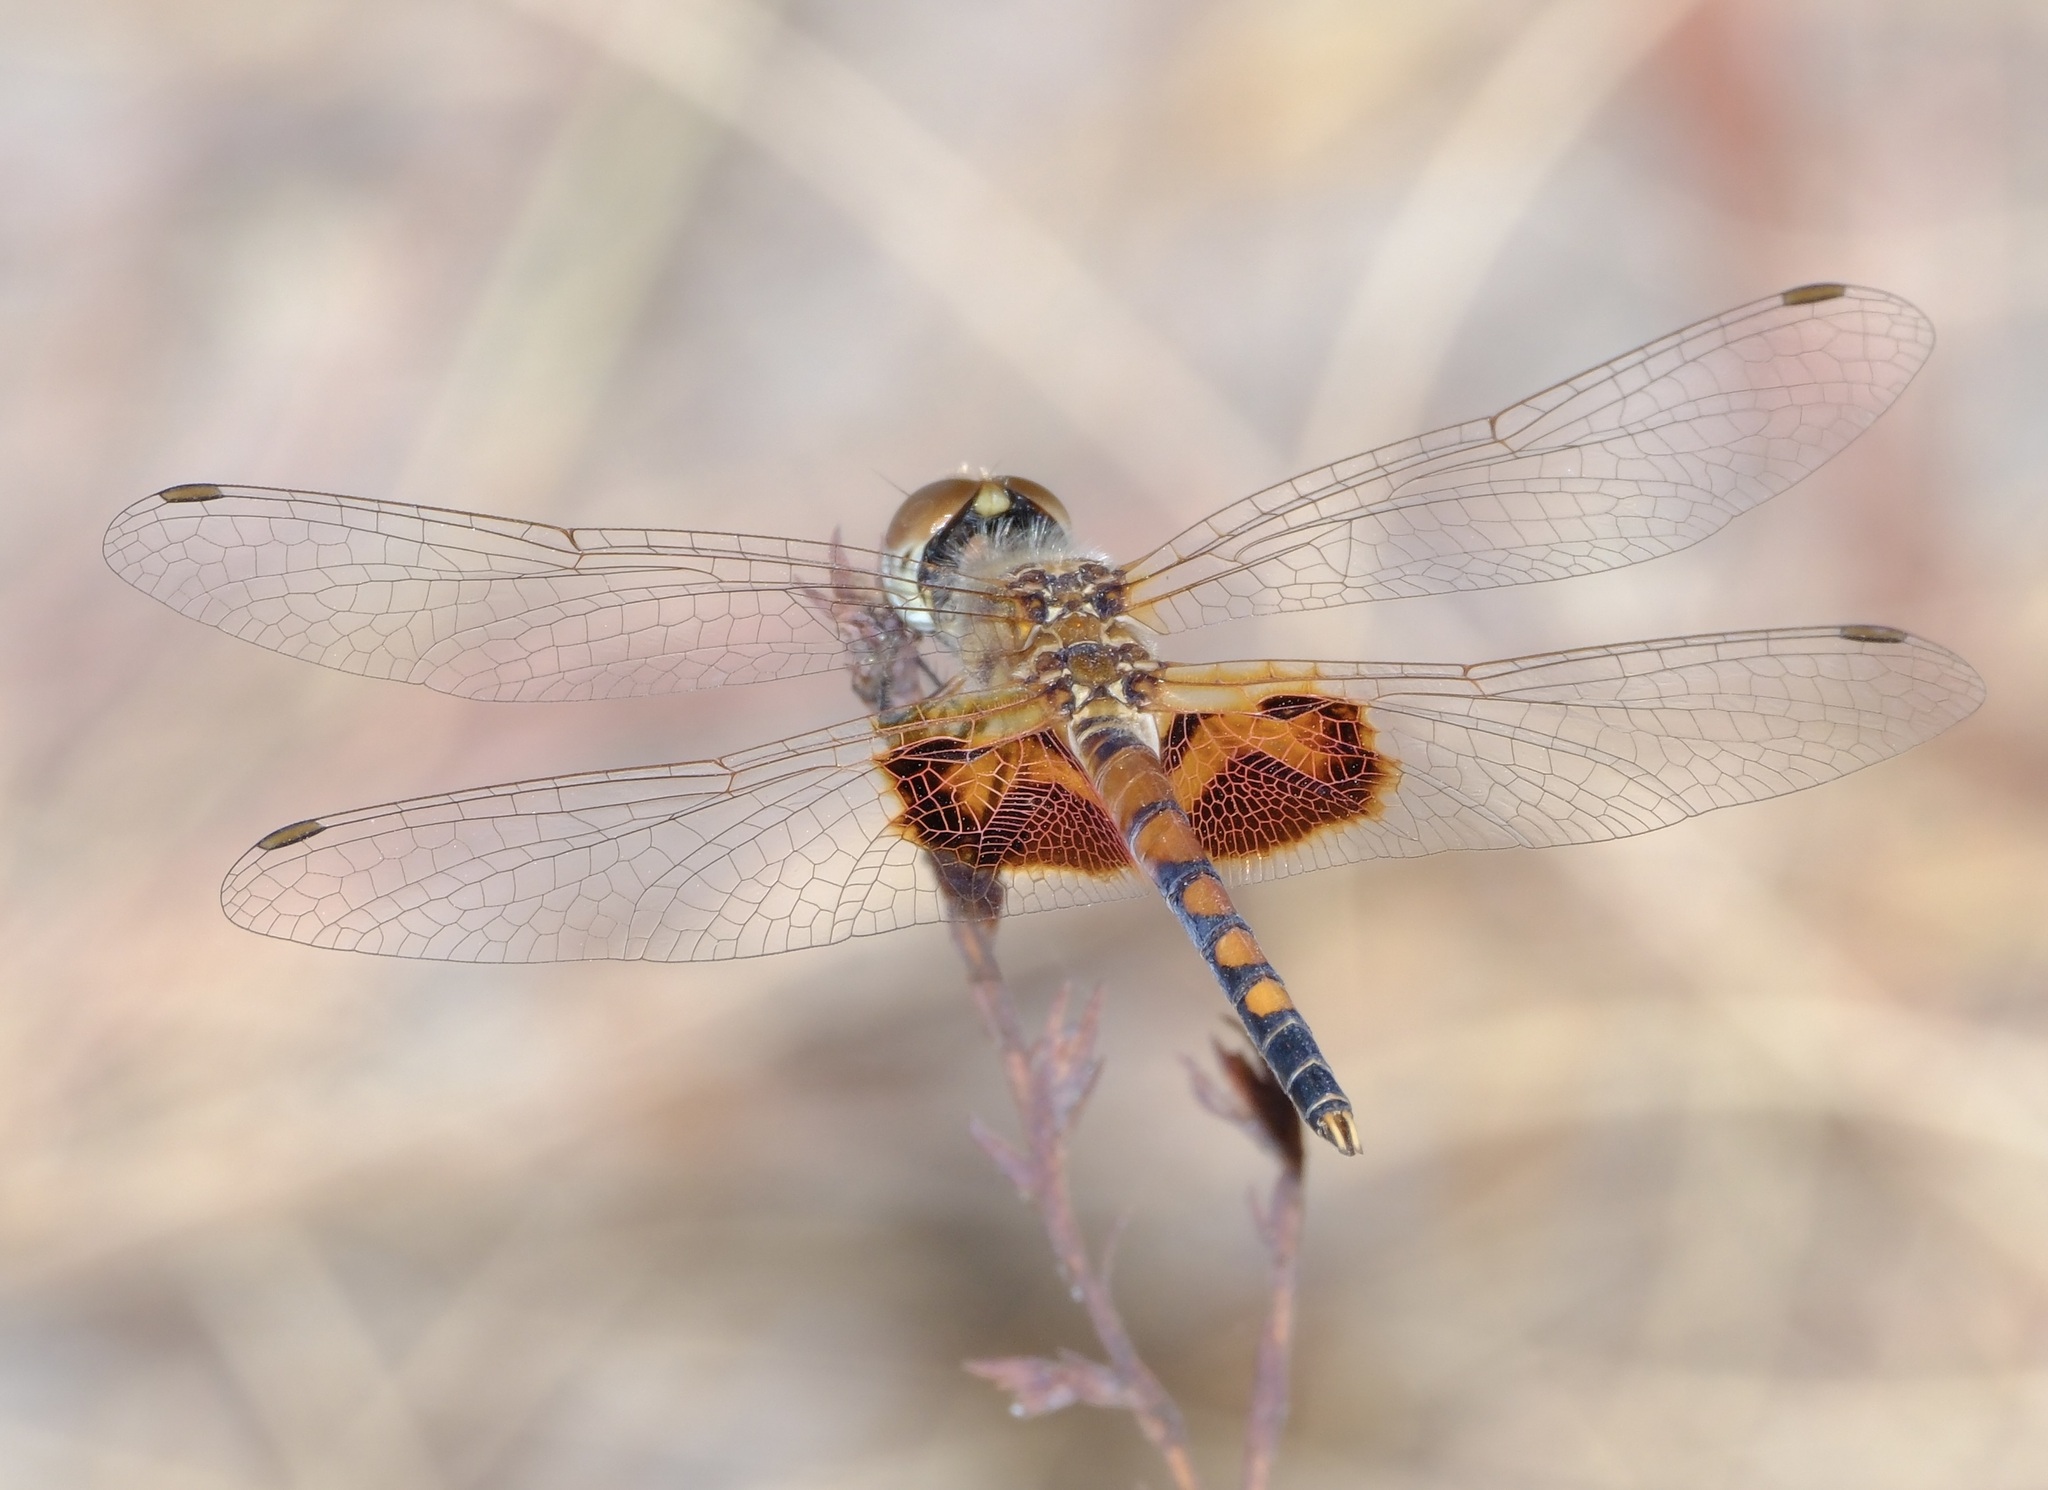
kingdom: Animalia
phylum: Arthropoda
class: Insecta
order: Odonata
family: Libellulidae
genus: Celithemis
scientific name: Celithemis amanda
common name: Amanda's pennant
